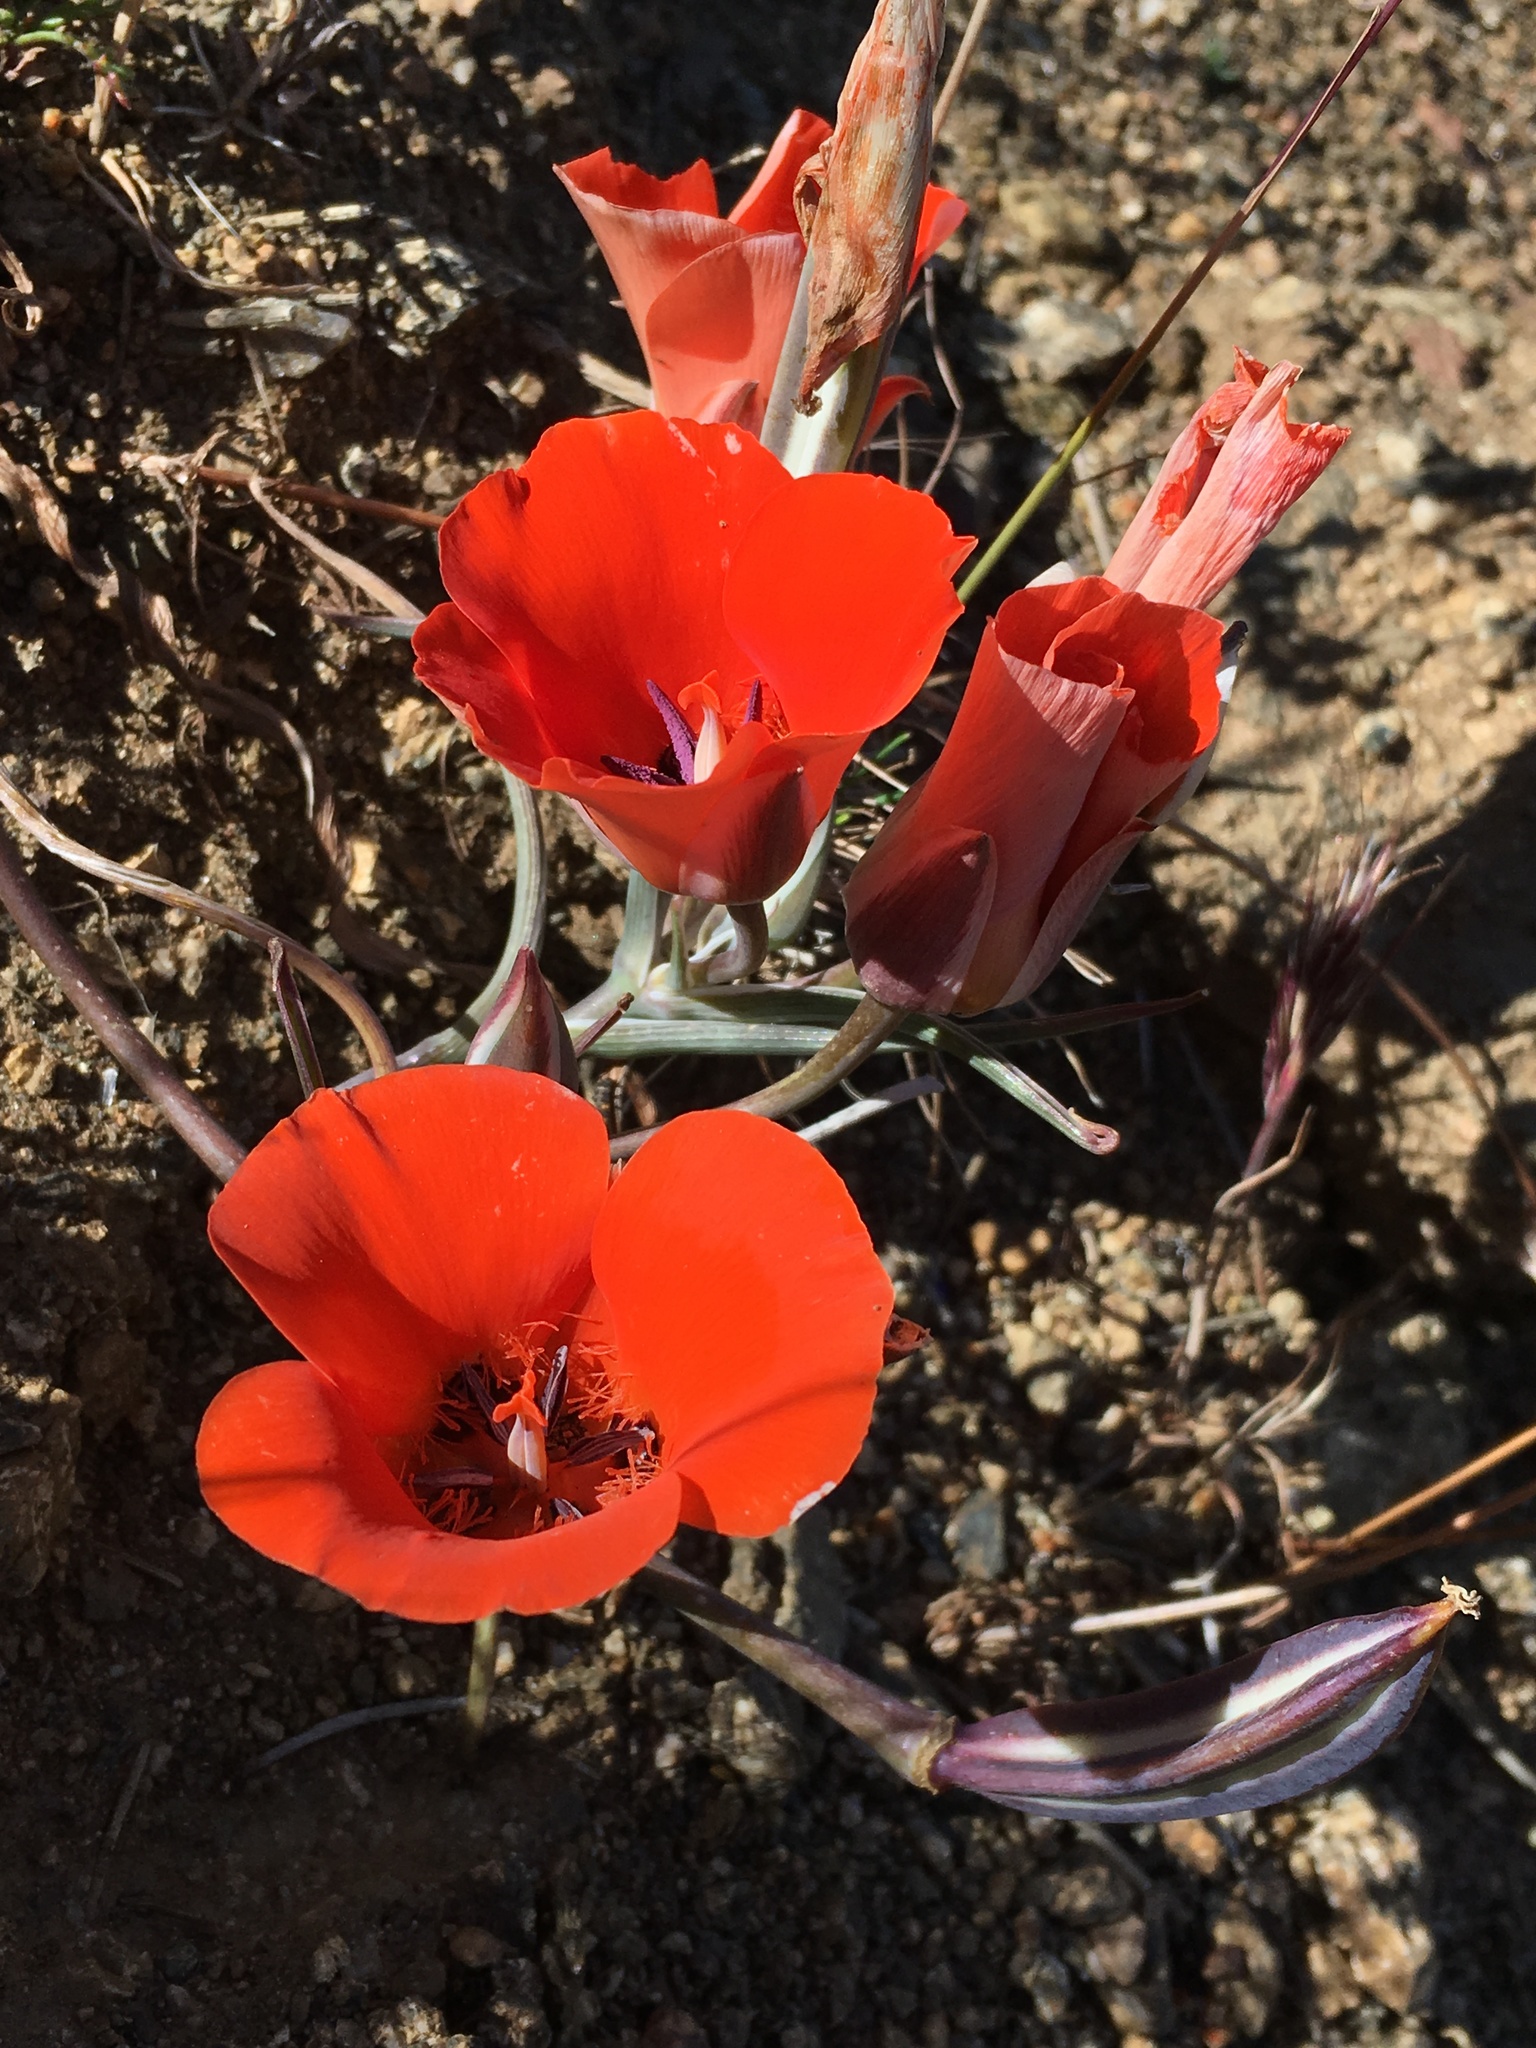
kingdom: Plantae
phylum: Tracheophyta
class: Liliopsida
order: Liliales
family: Liliaceae
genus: Calochortus
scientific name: Calochortus kennedyi
